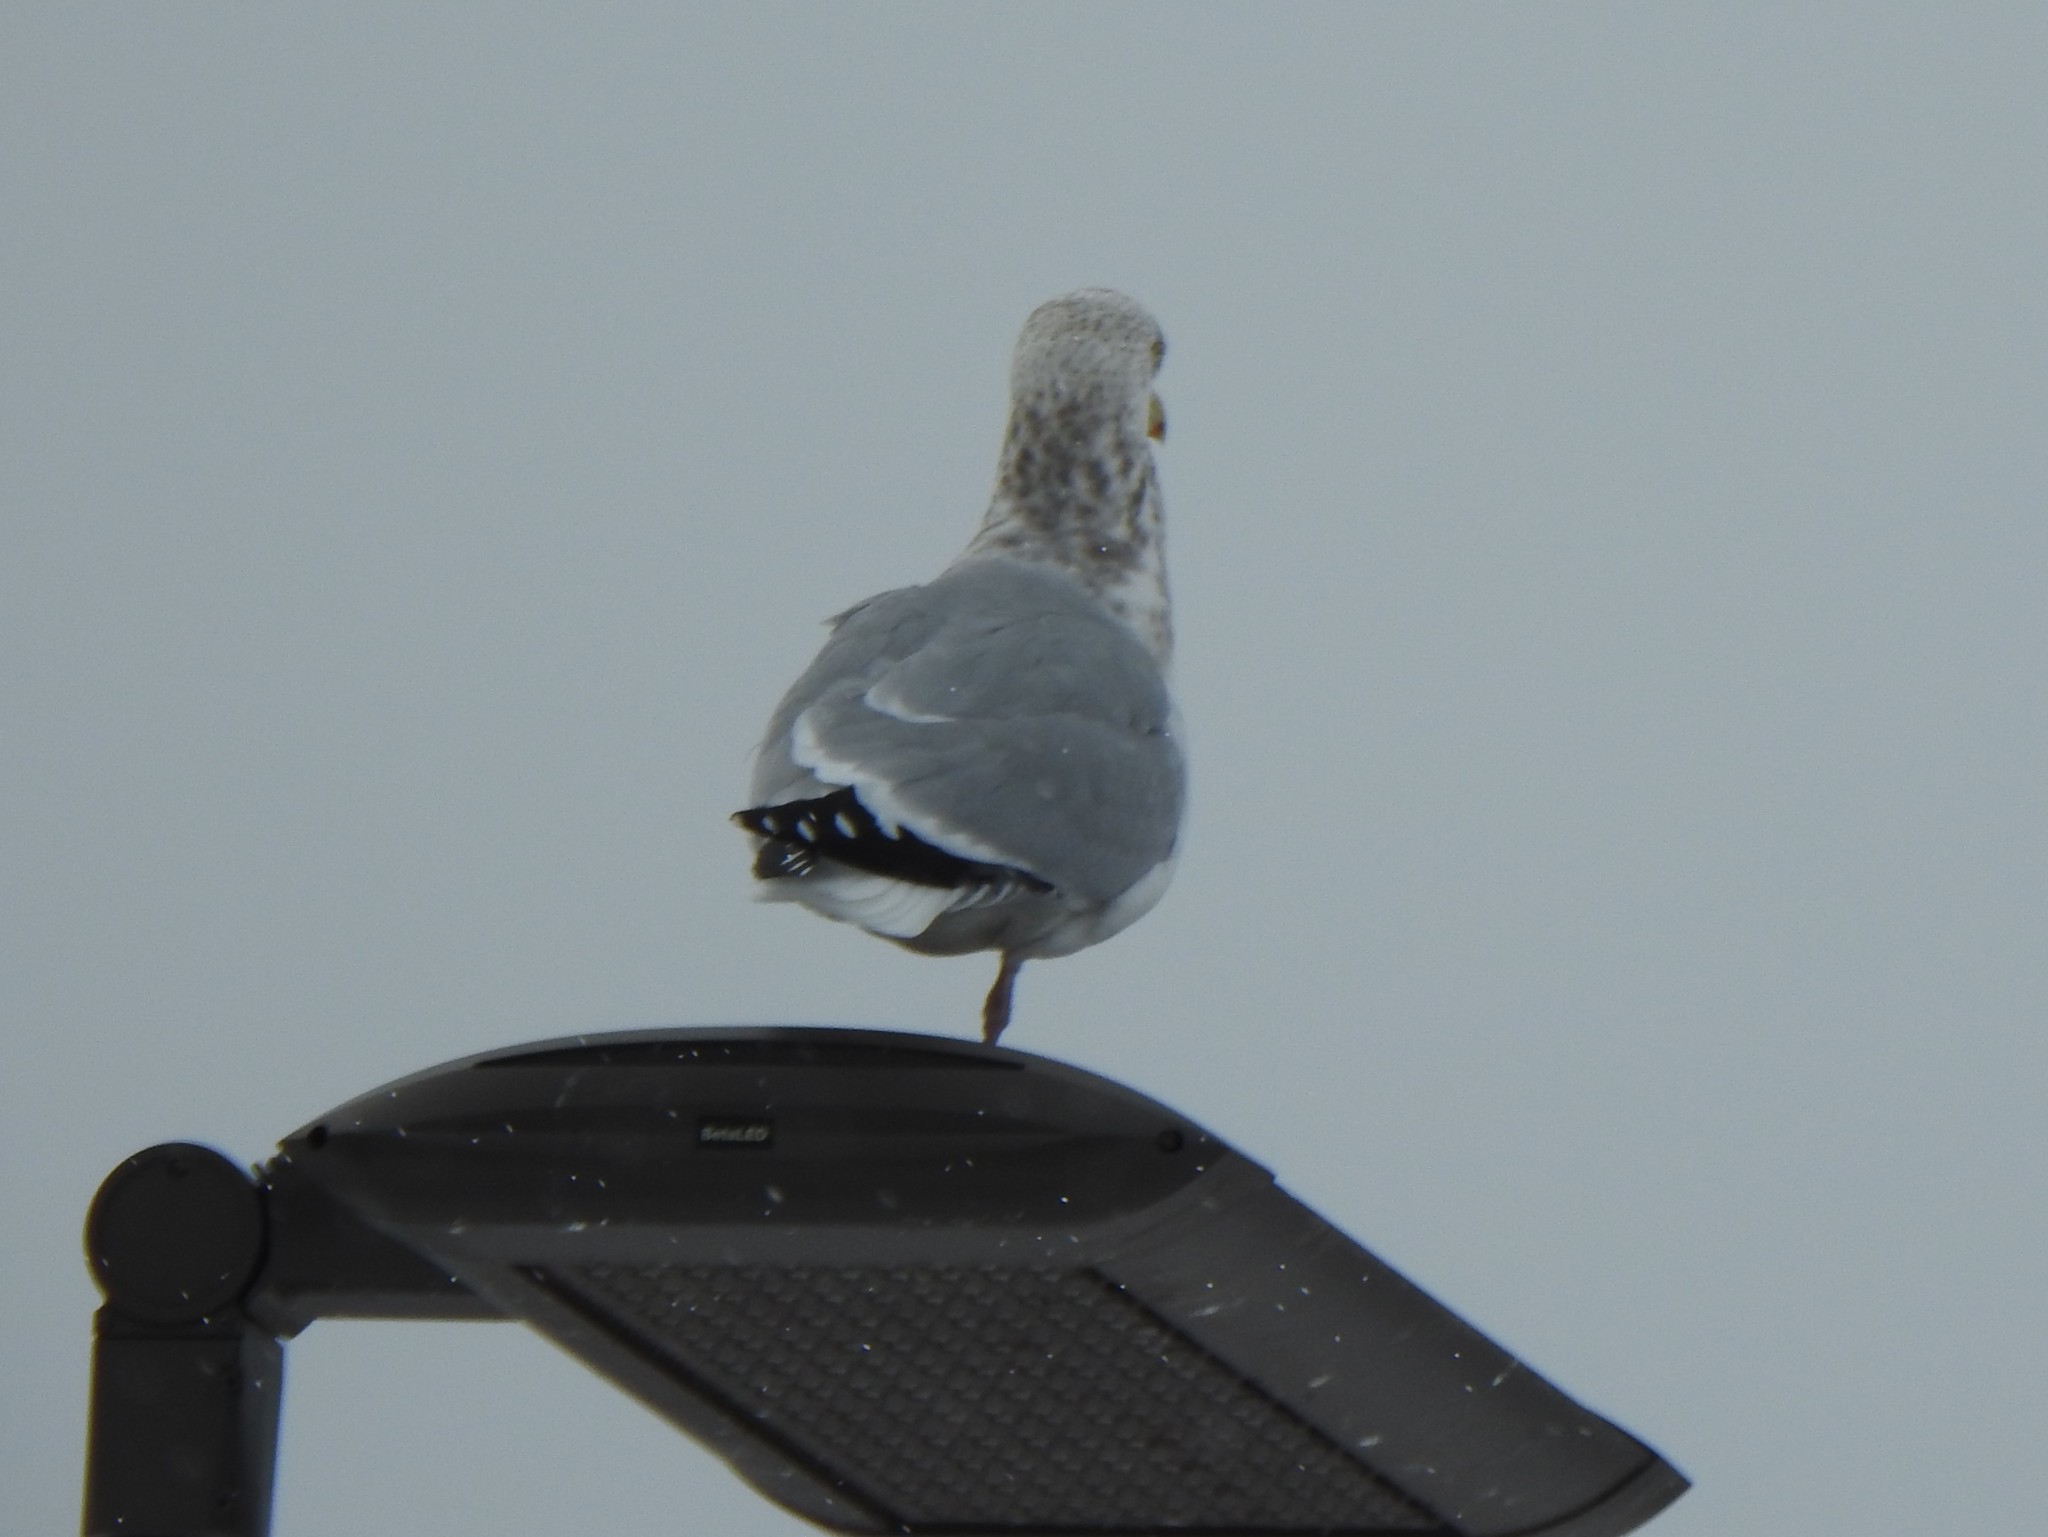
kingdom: Animalia
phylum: Chordata
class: Aves
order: Charadriiformes
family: Laridae
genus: Larus
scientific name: Larus argentatus
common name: Herring gull
